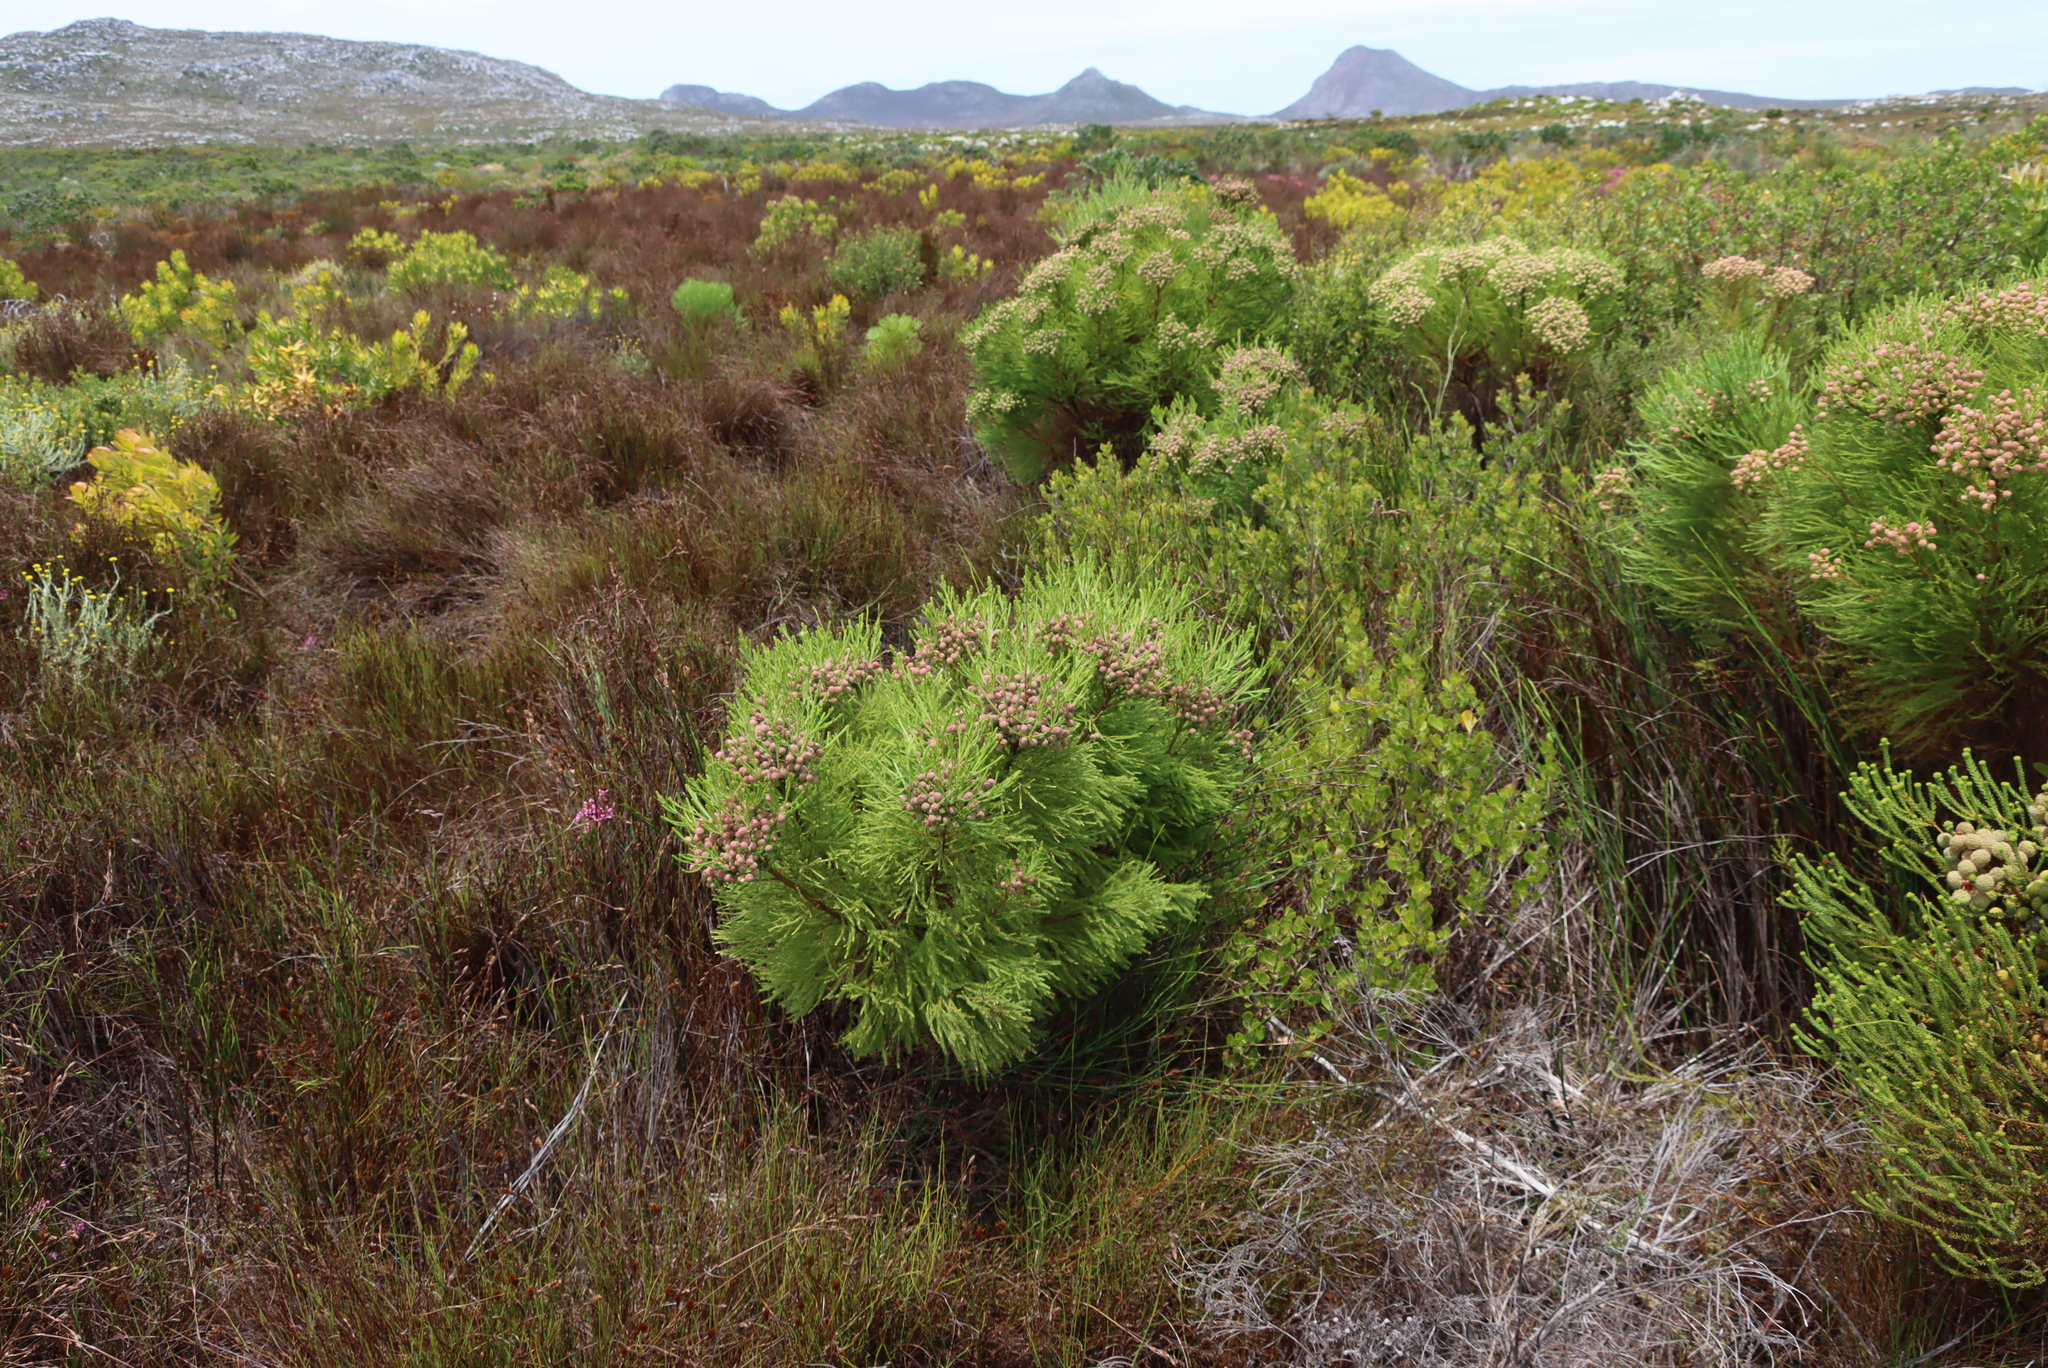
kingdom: Plantae
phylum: Tracheophyta
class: Magnoliopsida
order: Bruniales
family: Bruniaceae
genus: Berzelia
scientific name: Berzelia lanuginosa
